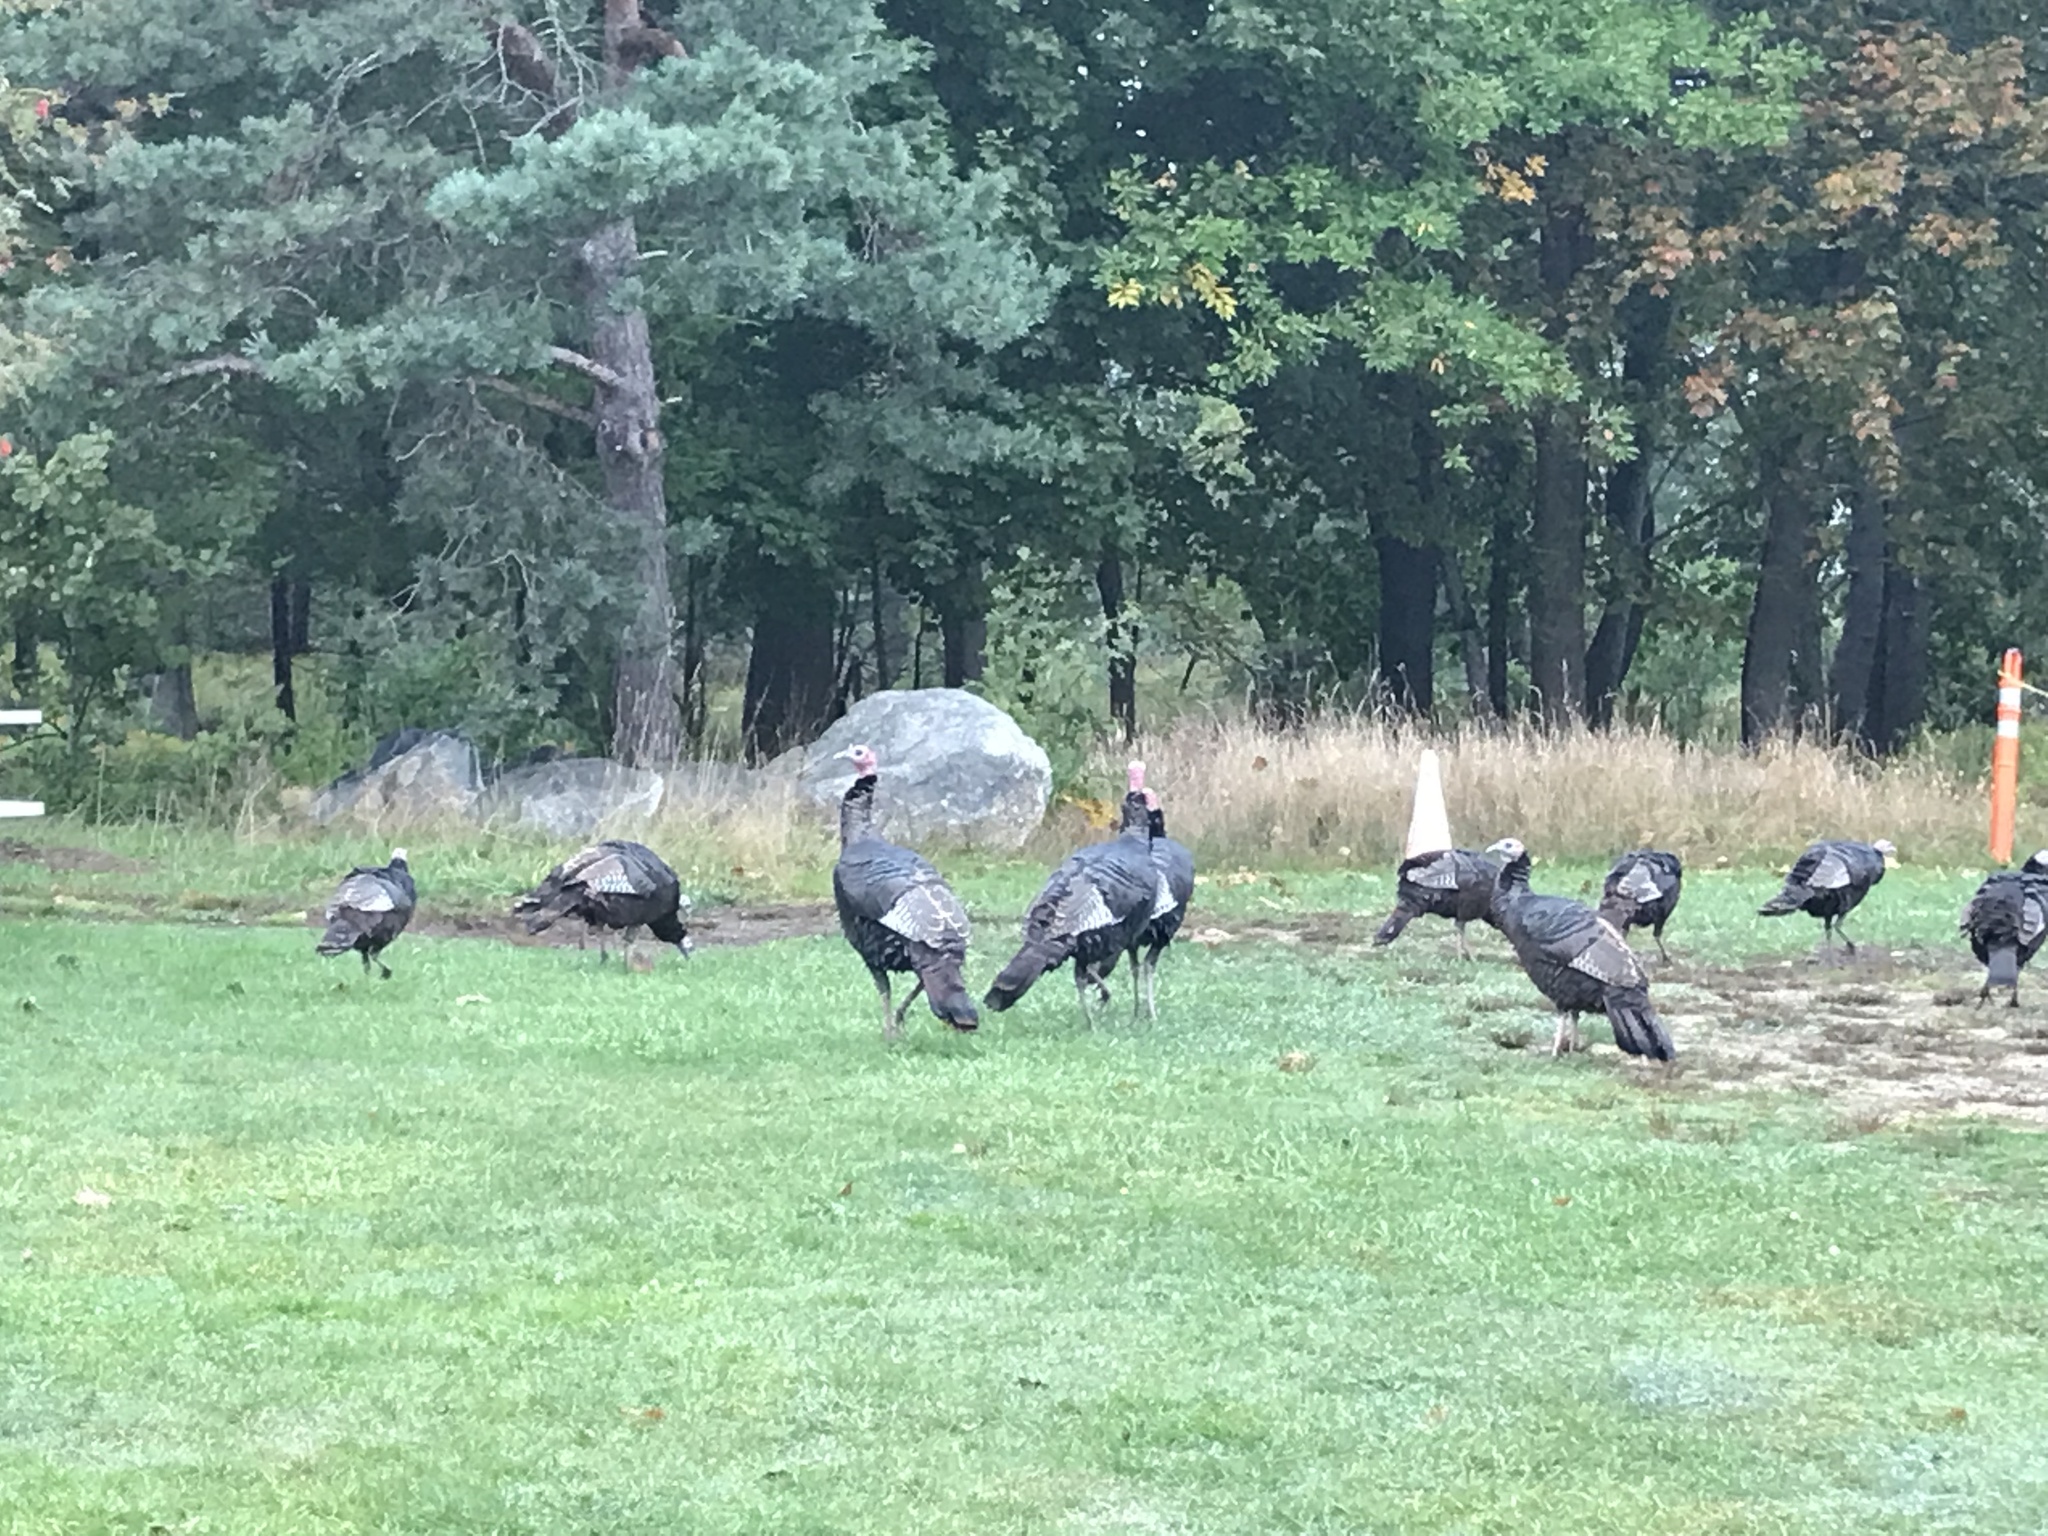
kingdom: Animalia
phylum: Chordata
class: Aves
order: Galliformes
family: Phasianidae
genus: Meleagris
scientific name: Meleagris gallopavo
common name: Wild turkey
